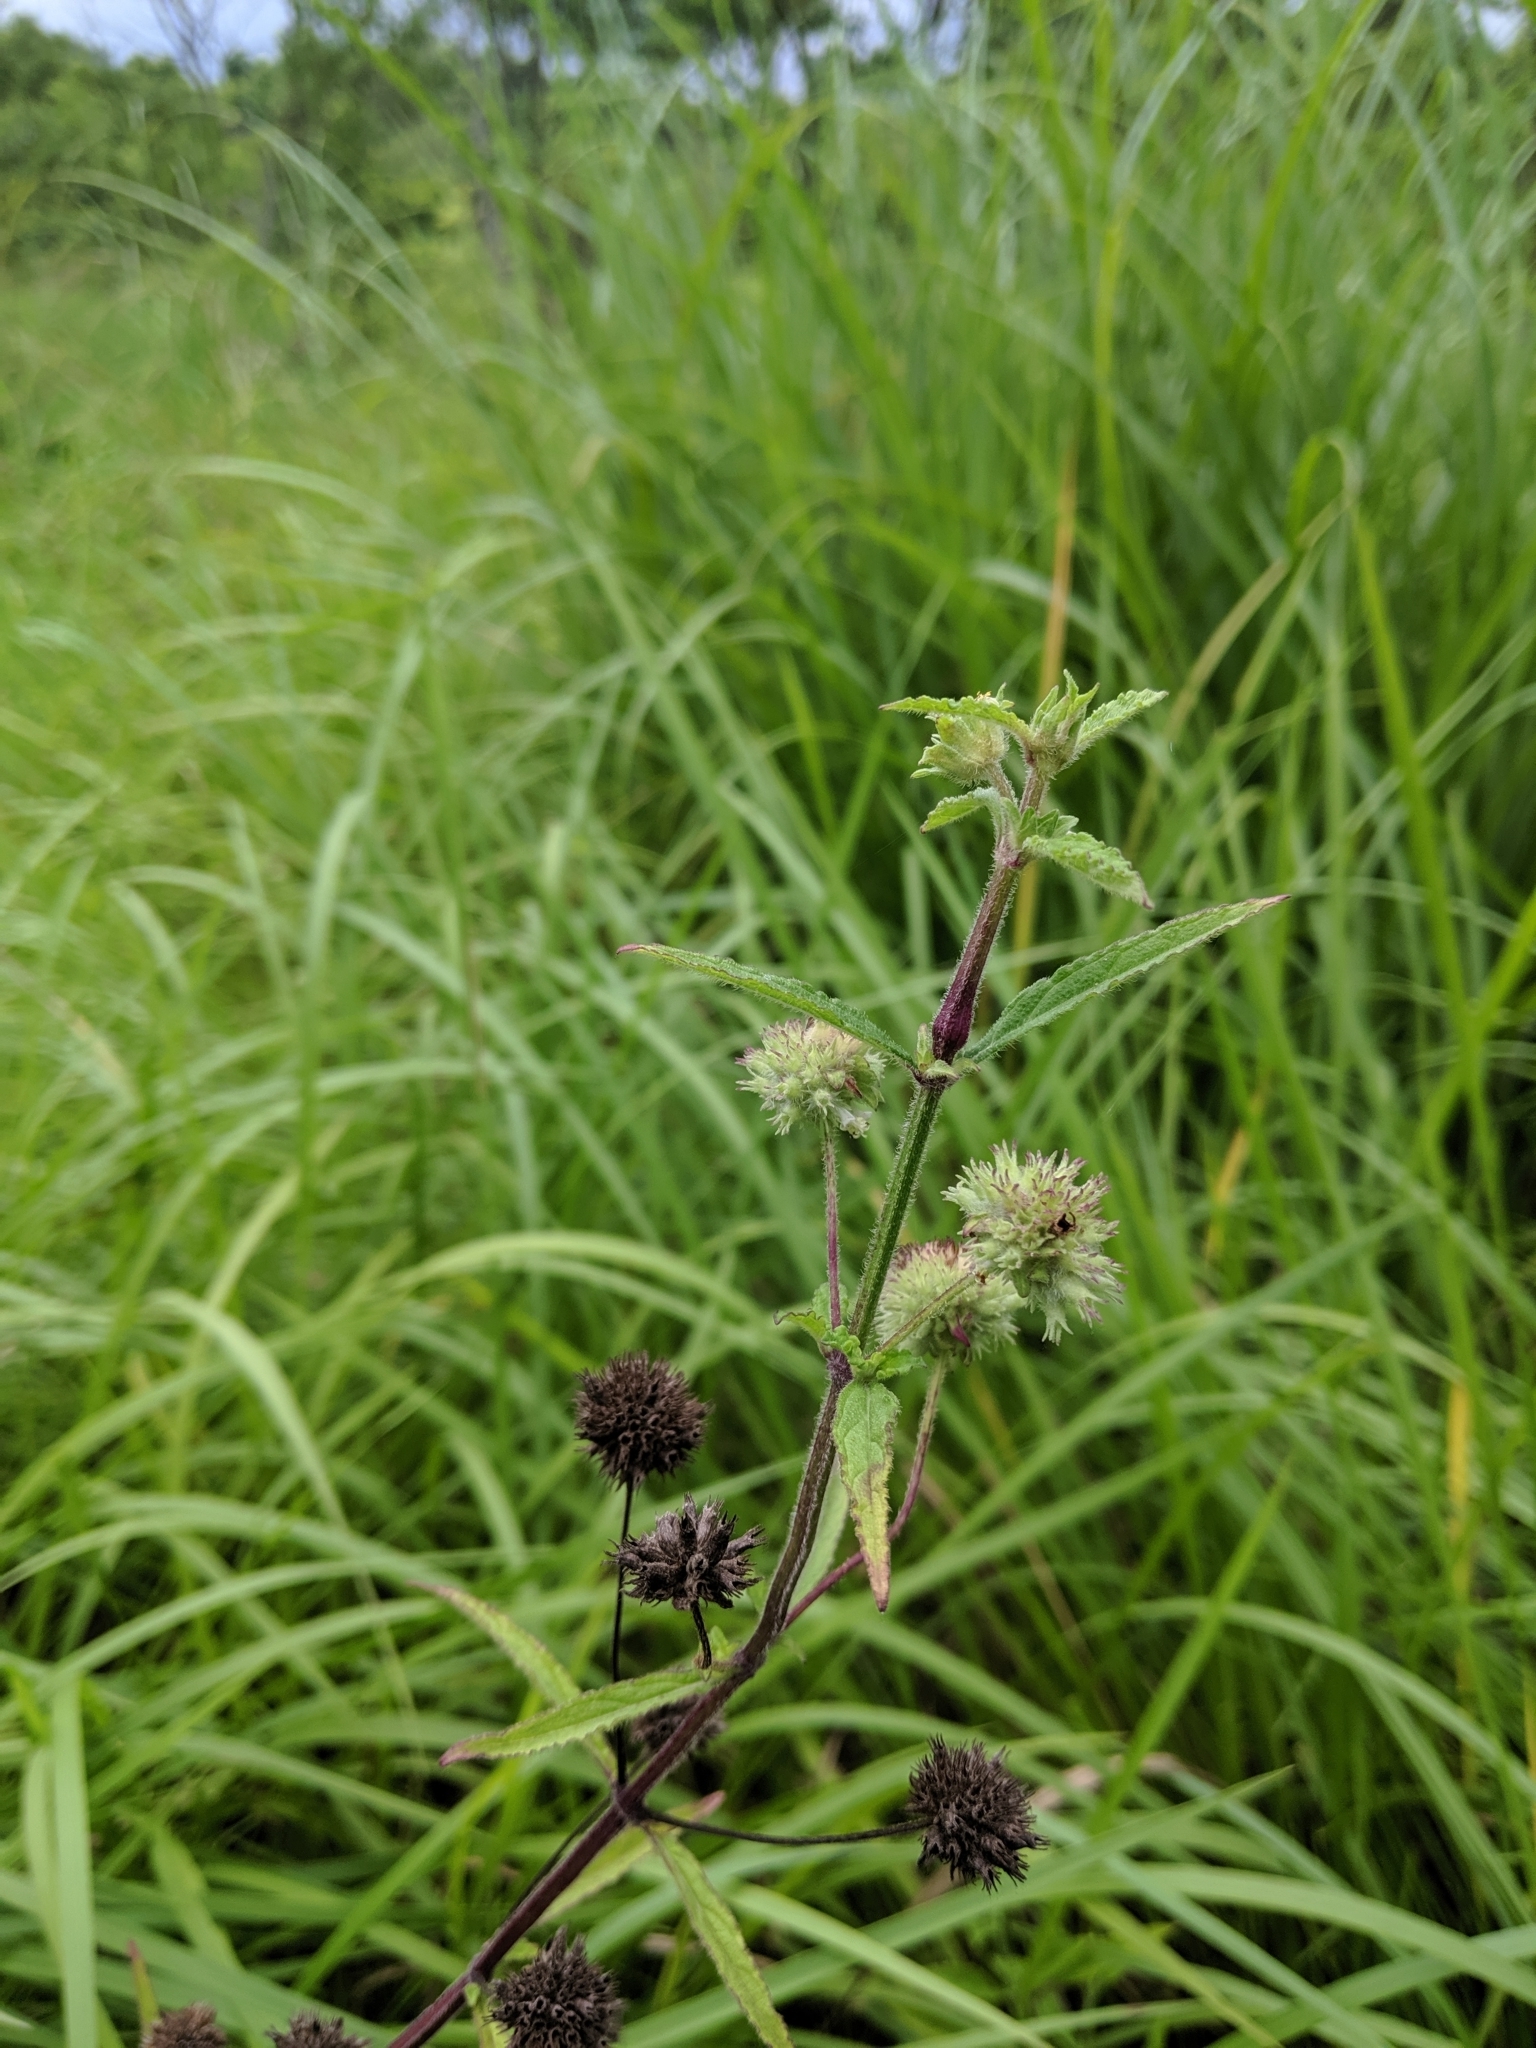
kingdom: Plantae
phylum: Tracheophyta
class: Magnoliopsida
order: Lamiales
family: Lamiaceae
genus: Hyptis
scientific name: Hyptis capitata
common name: False ironwort
